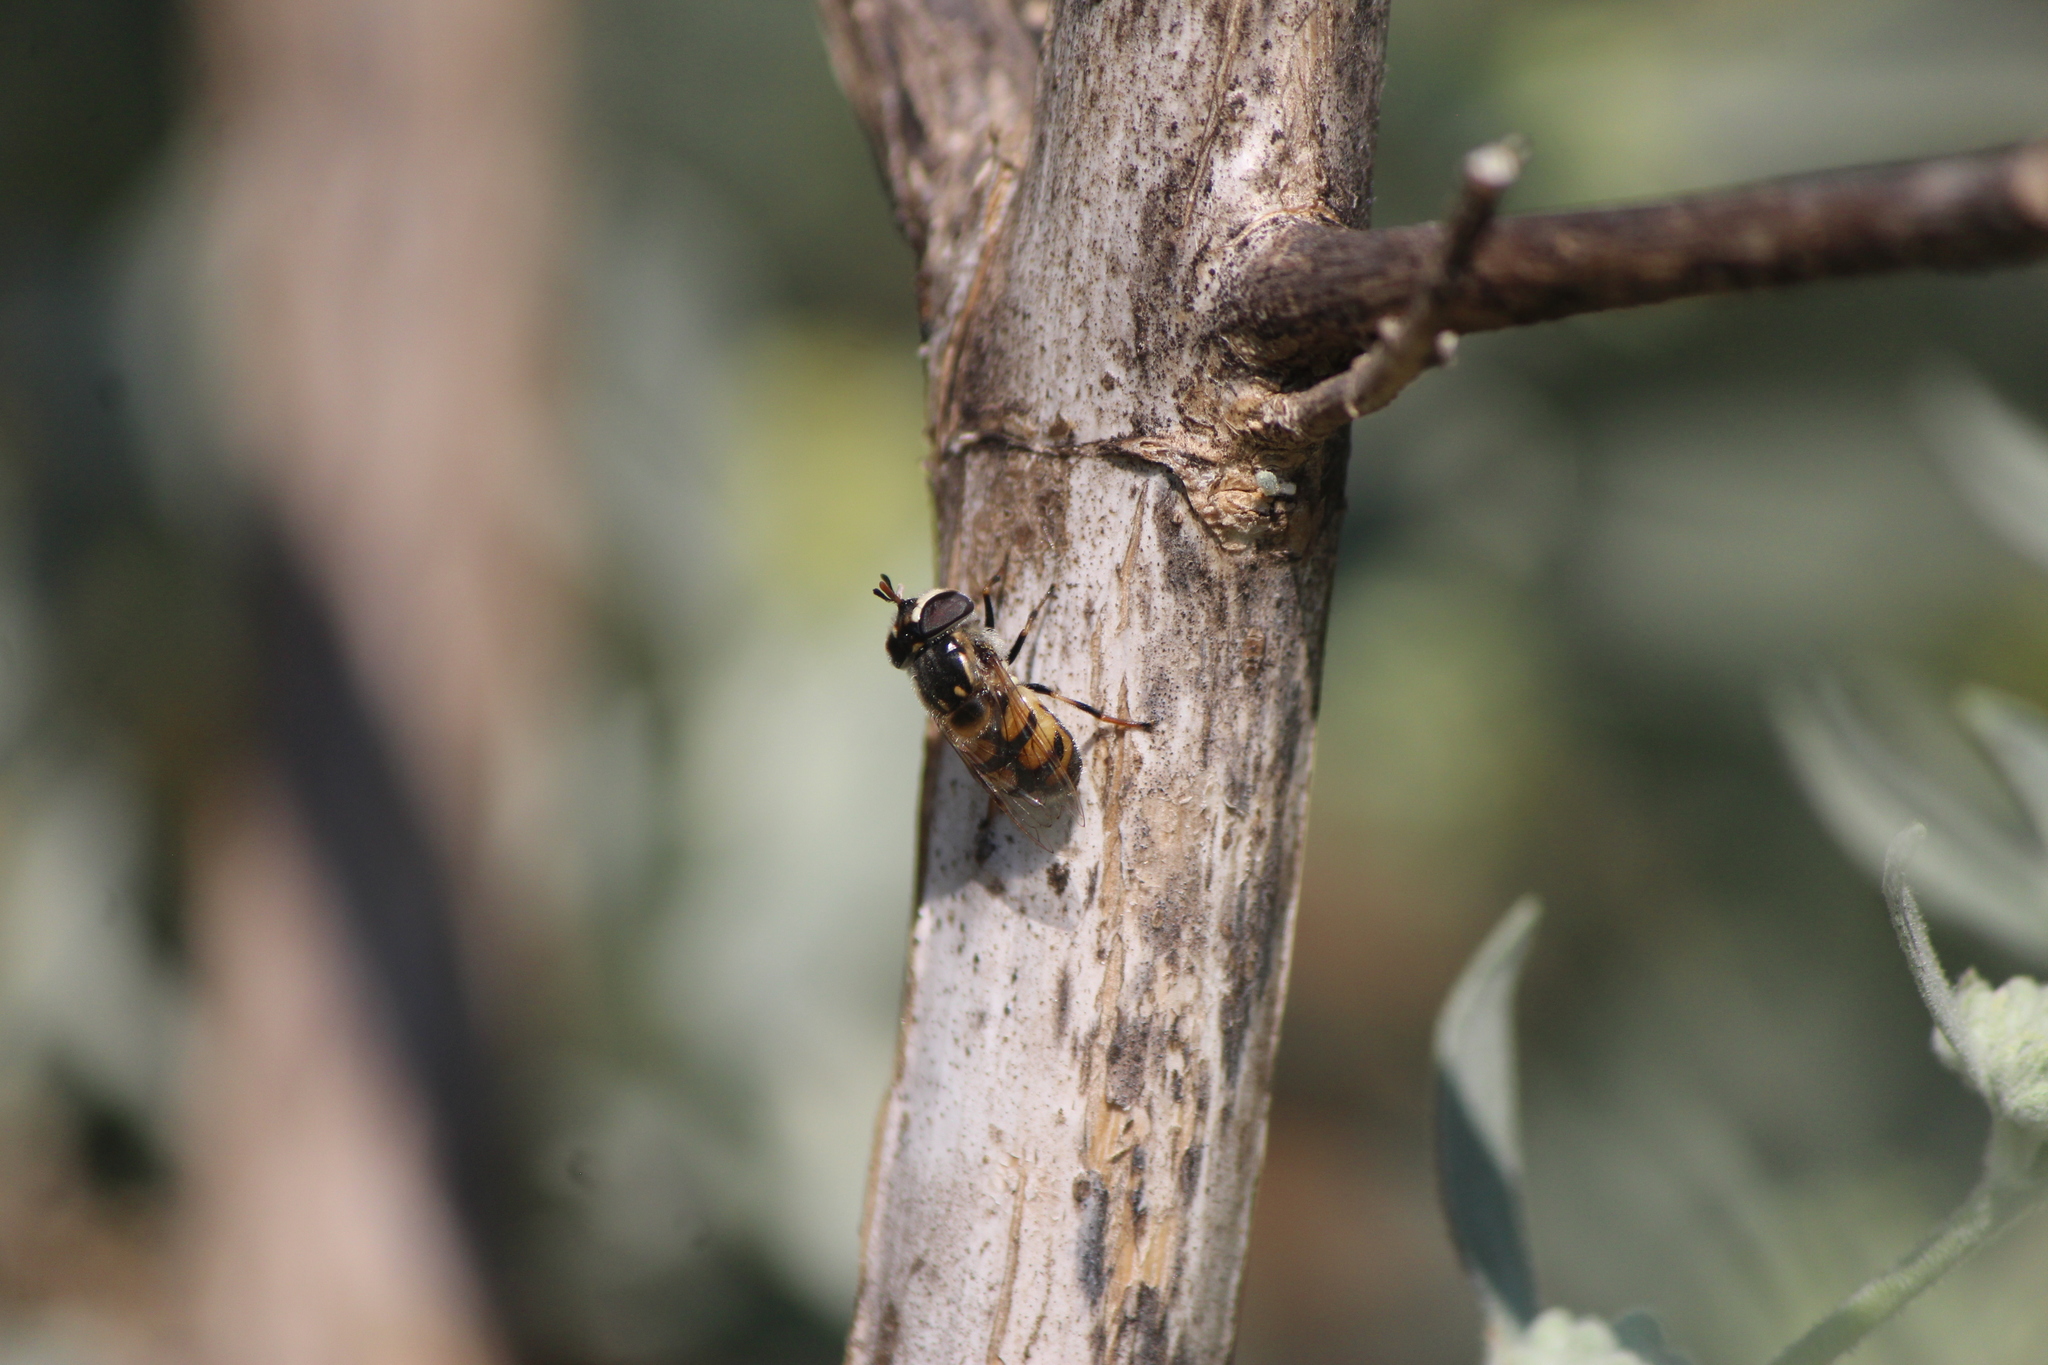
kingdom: Animalia
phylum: Arthropoda
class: Insecta
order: Diptera
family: Syrphidae
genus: Copestylum
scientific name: Copestylum marginatum
